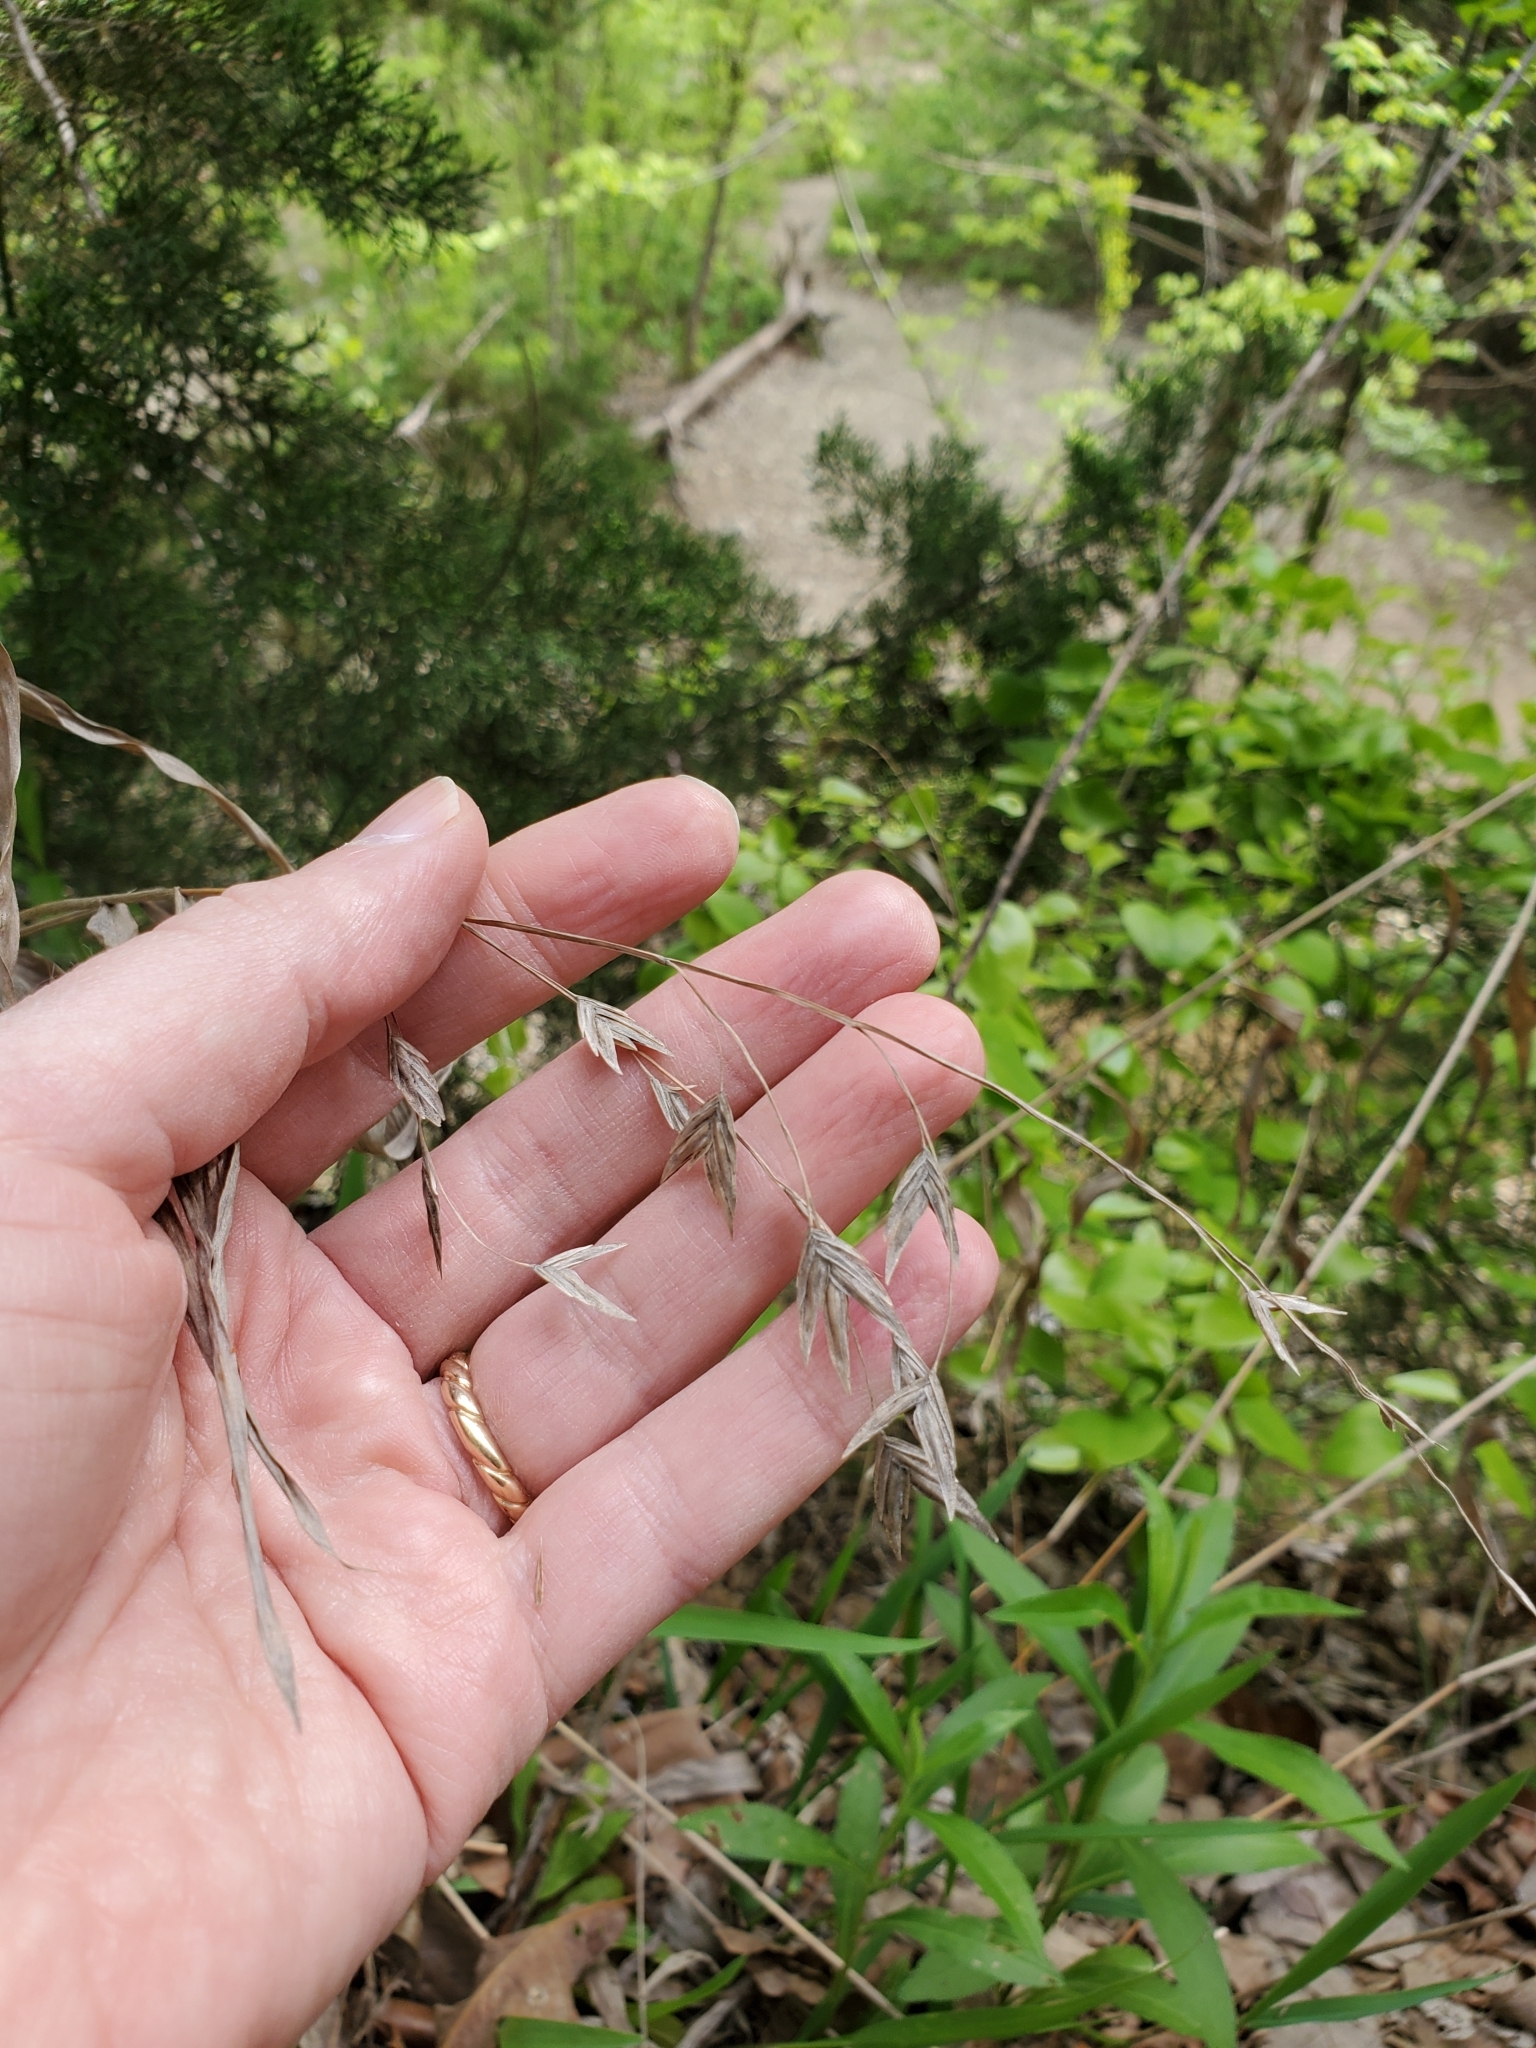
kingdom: Plantae
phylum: Tracheophyta
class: Liliopsida
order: Poales
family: Poaceae
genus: Chasmanthium
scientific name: Chasmanthium latifolium
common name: Broad-leaved chasmanthium
